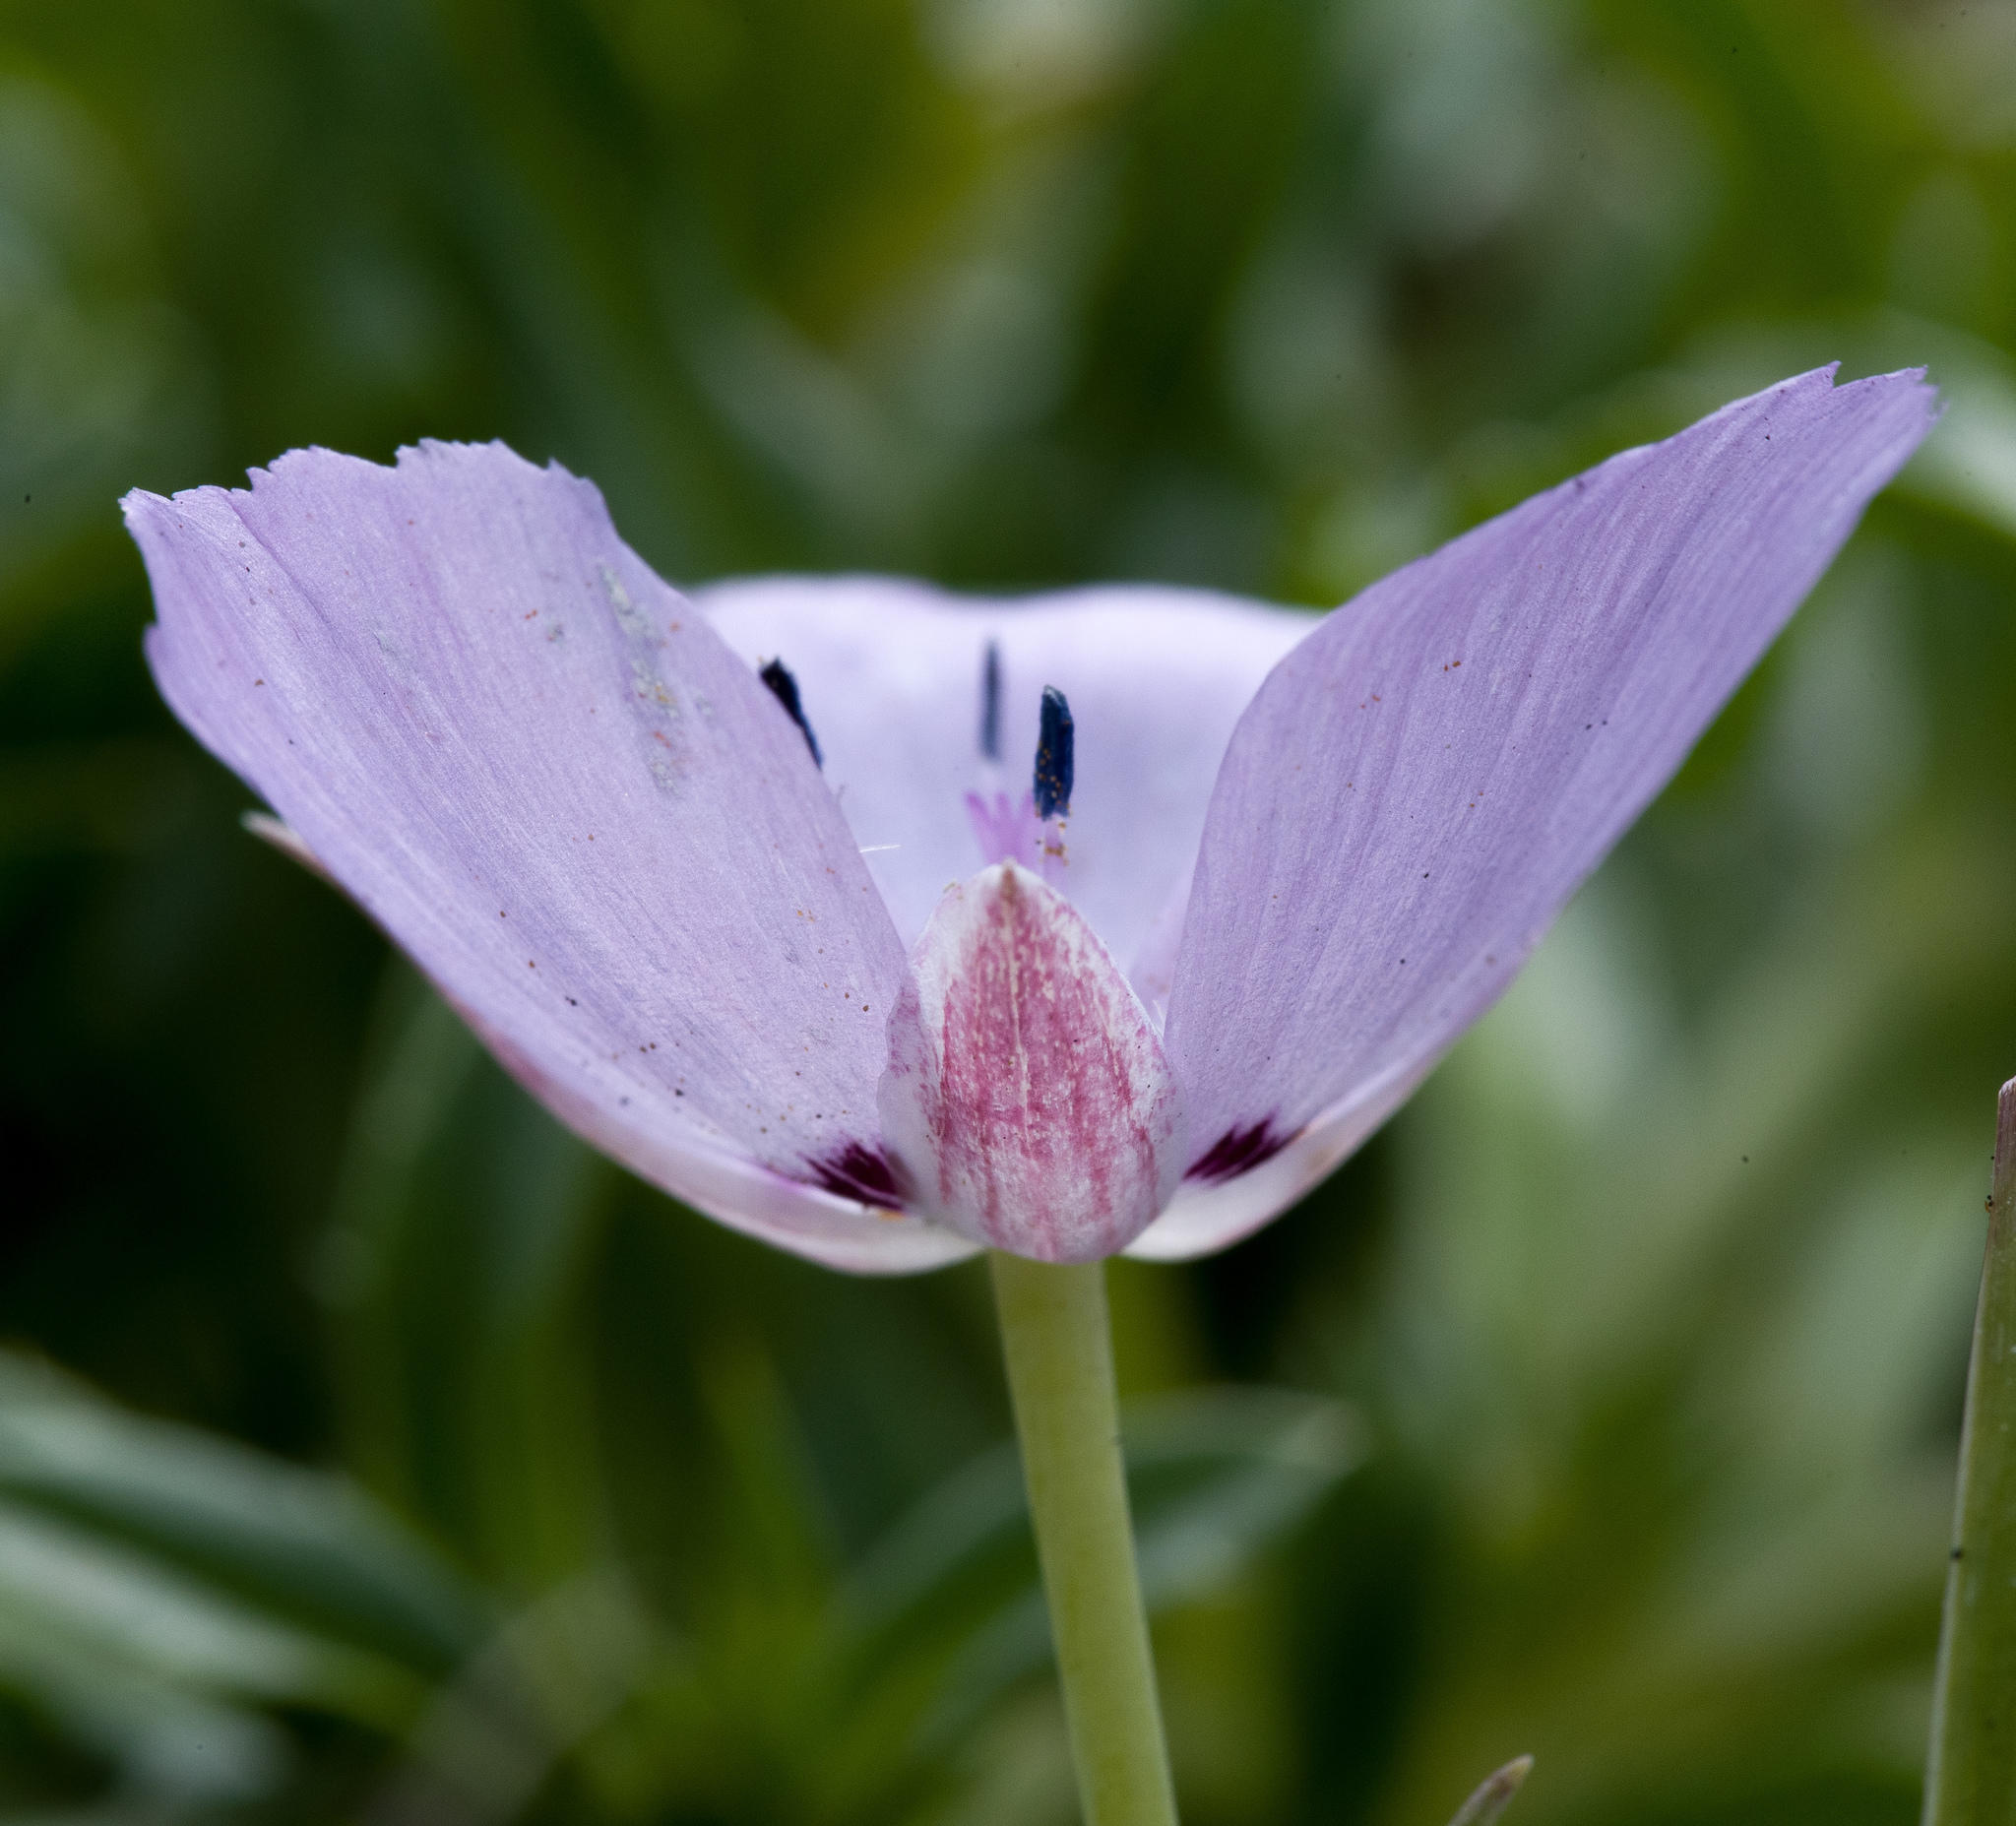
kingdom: Plantae
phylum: Tracheophyta
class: Liliopsida
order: Liliales
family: Liliaceae
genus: Calochortus
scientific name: Calochortus uniflorus
